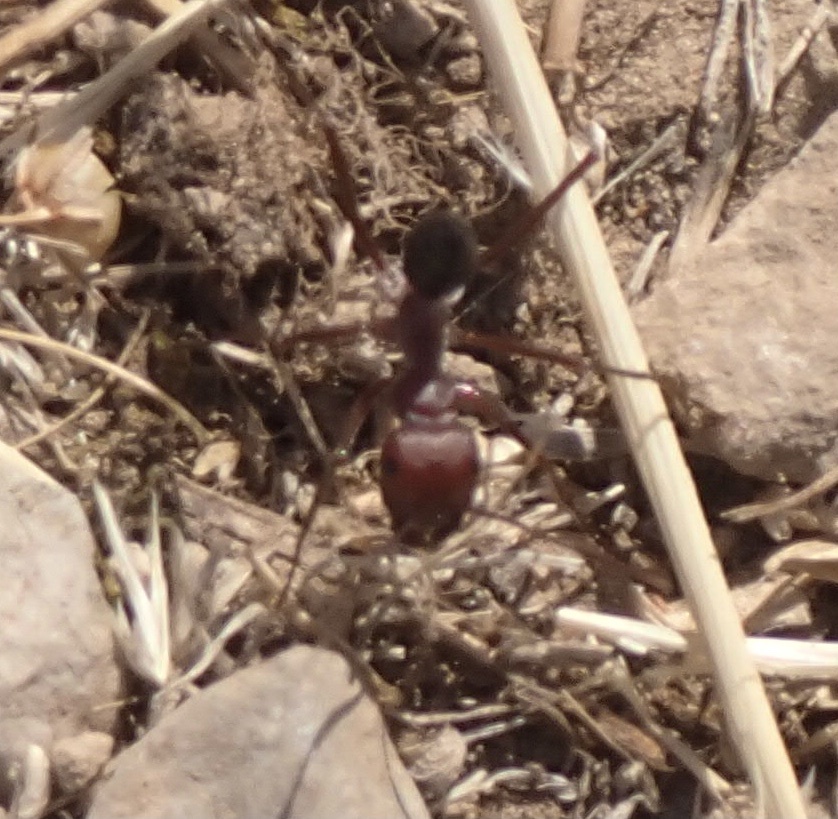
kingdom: Animalia
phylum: Arthropoda
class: Insecta
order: Hymenoptera
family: Formicidae
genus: Cataglyphis
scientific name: Cataglyphis nodus
